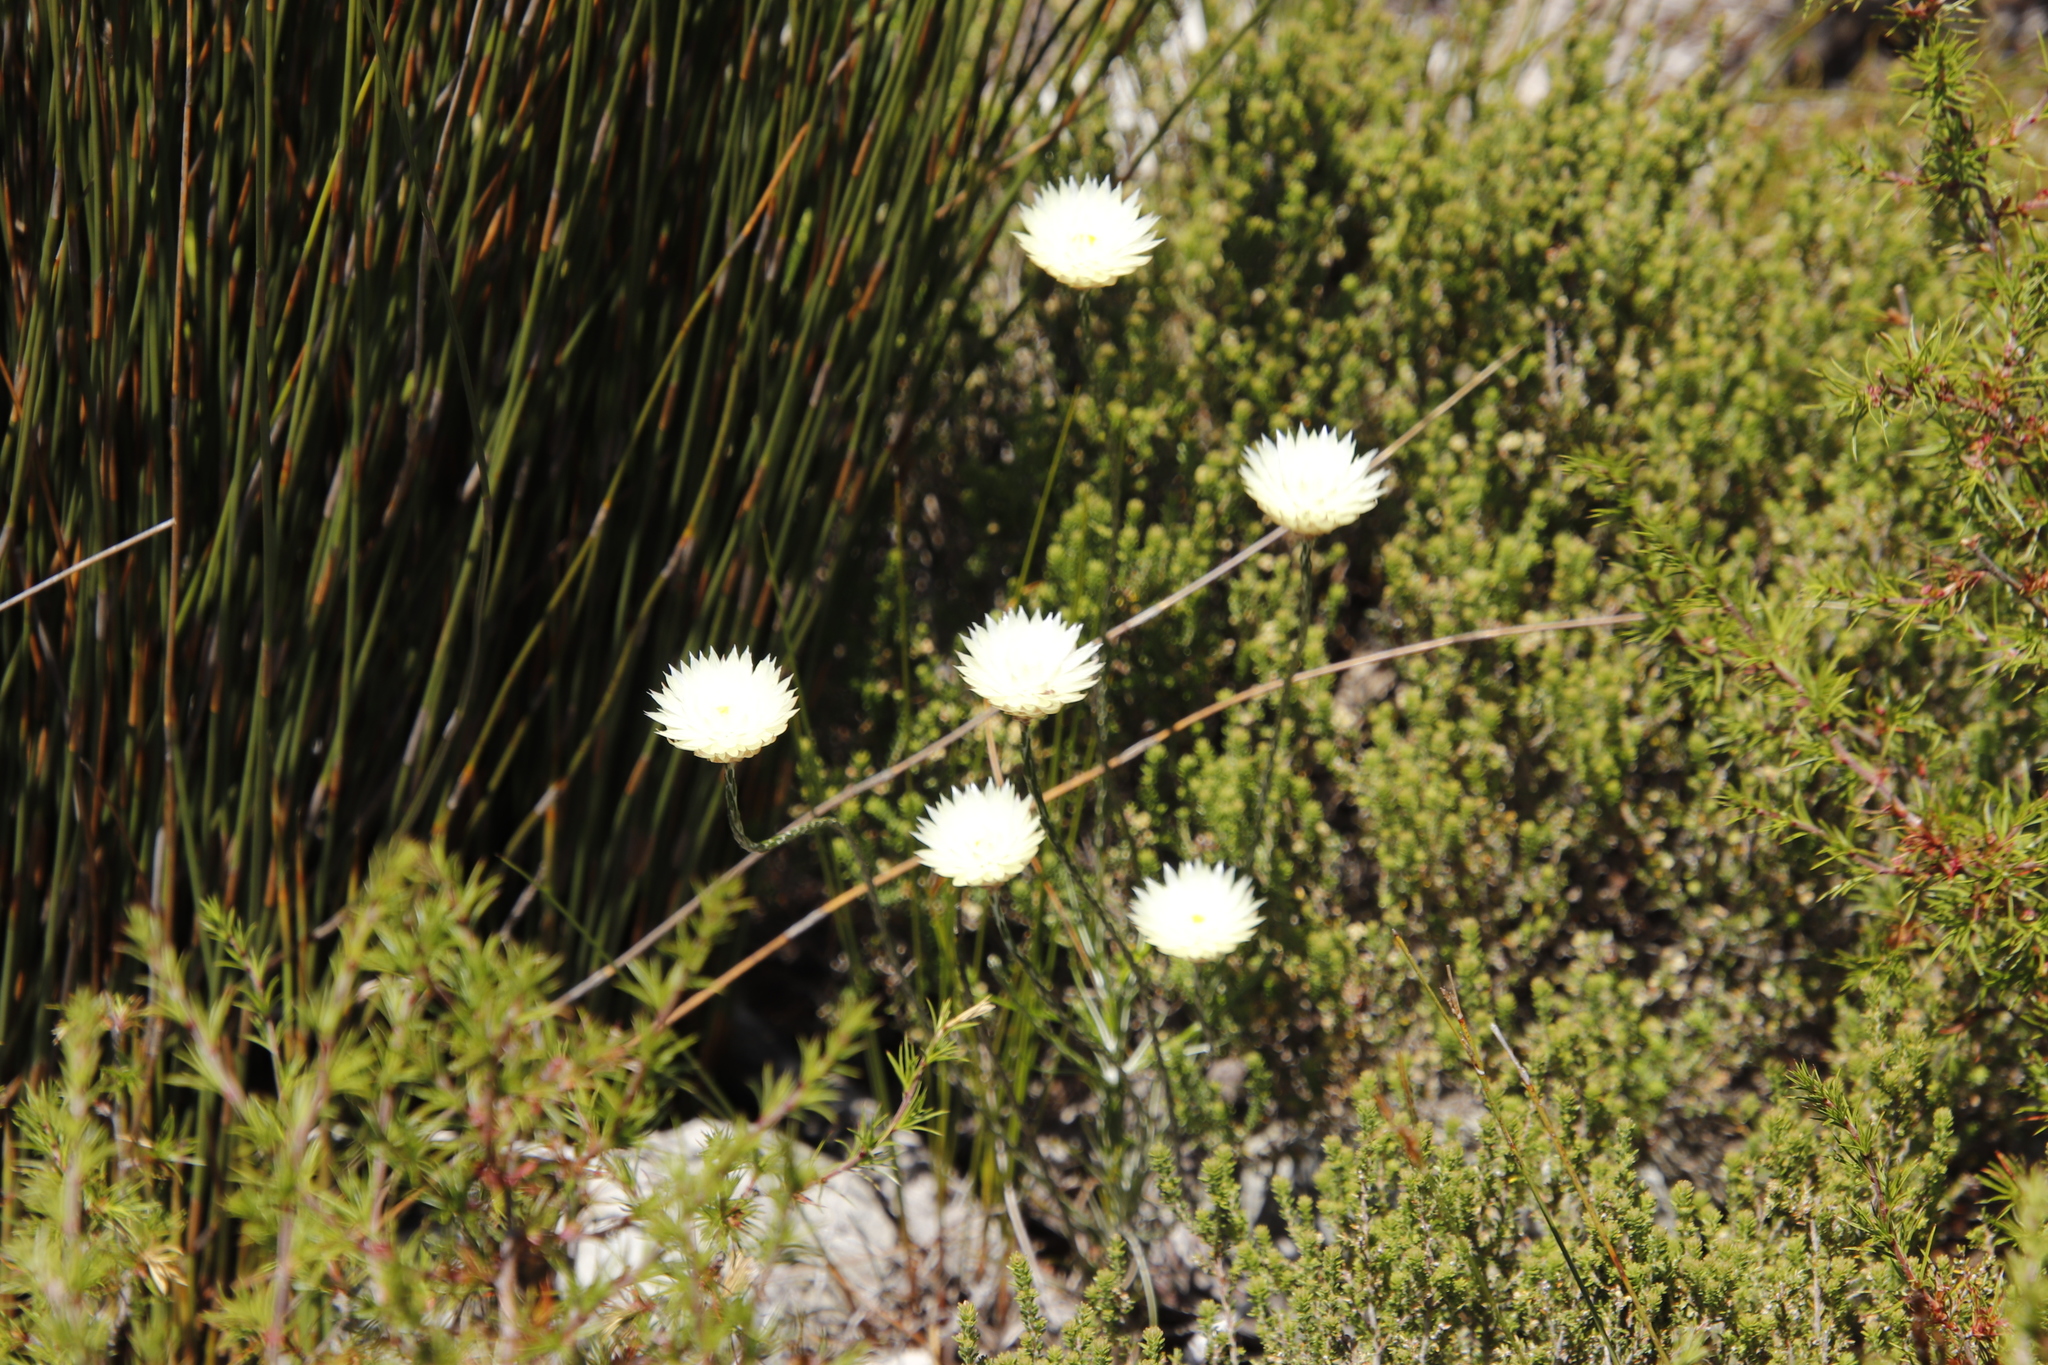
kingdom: Plantae
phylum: Tracheophyta
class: Magnoliopsida
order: Asterales
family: Asteraceae
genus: Edmondia
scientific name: Edmondia sesamoides
